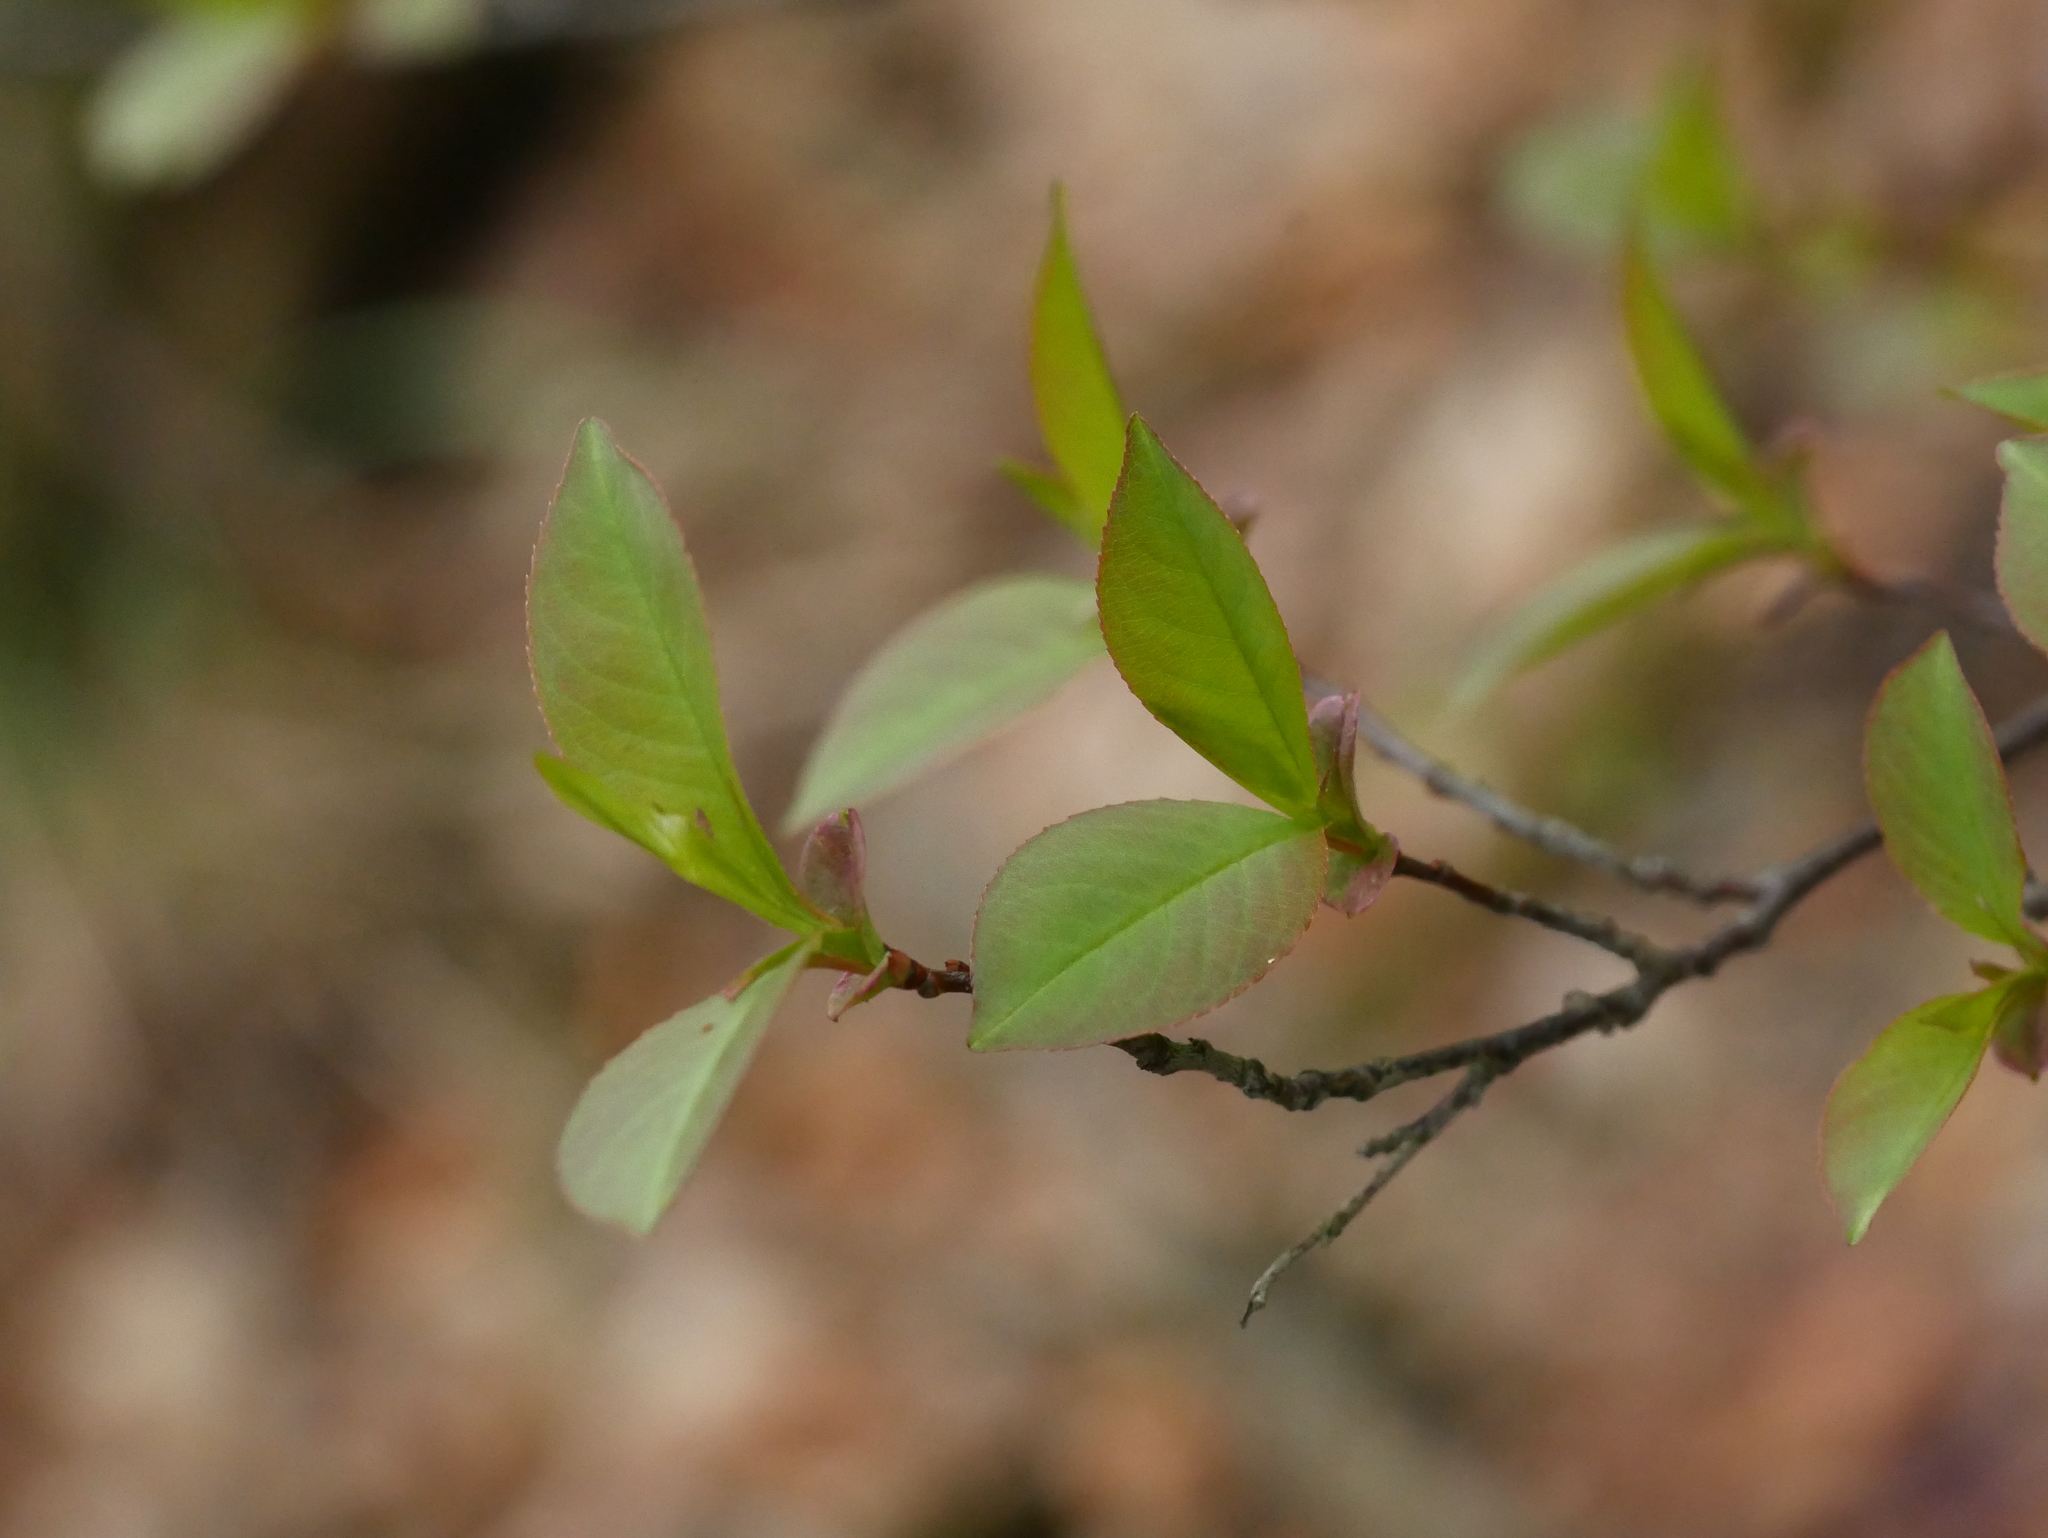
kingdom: Plantae
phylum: Tracheophyta
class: Magnoliopsida
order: Rosales
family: Rosaceae
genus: Prunus
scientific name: Prunus serotina
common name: Black cherry
